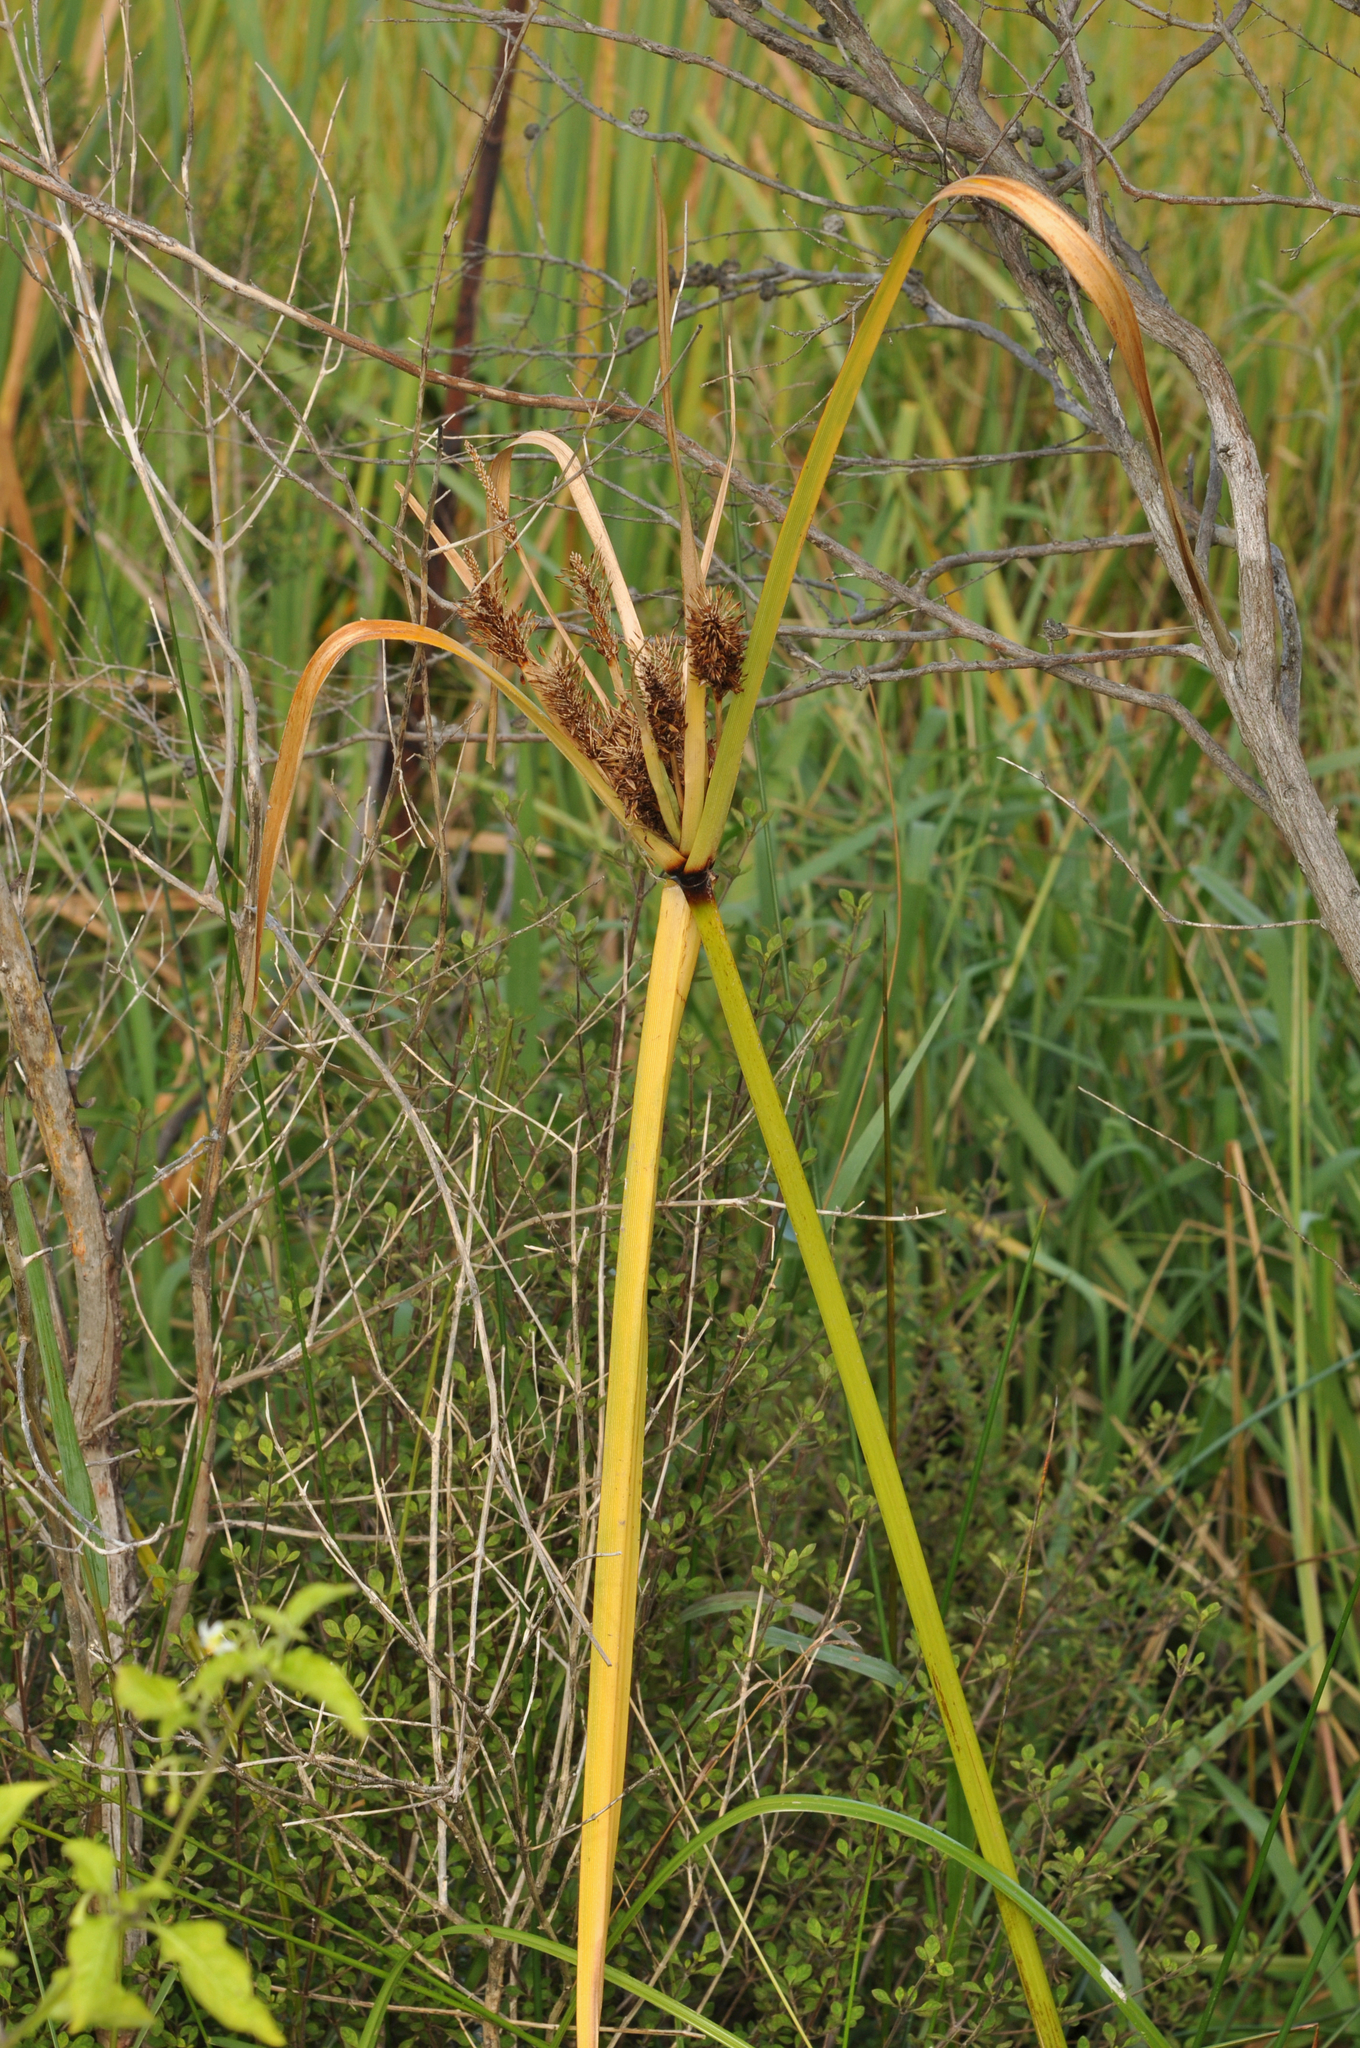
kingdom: Plantae
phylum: Tracheophyta
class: Liliopsida
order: Poales
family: Cyperaceae
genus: Cyperus
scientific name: Cyperus ustulatus
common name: Giant umbrella-sedge
